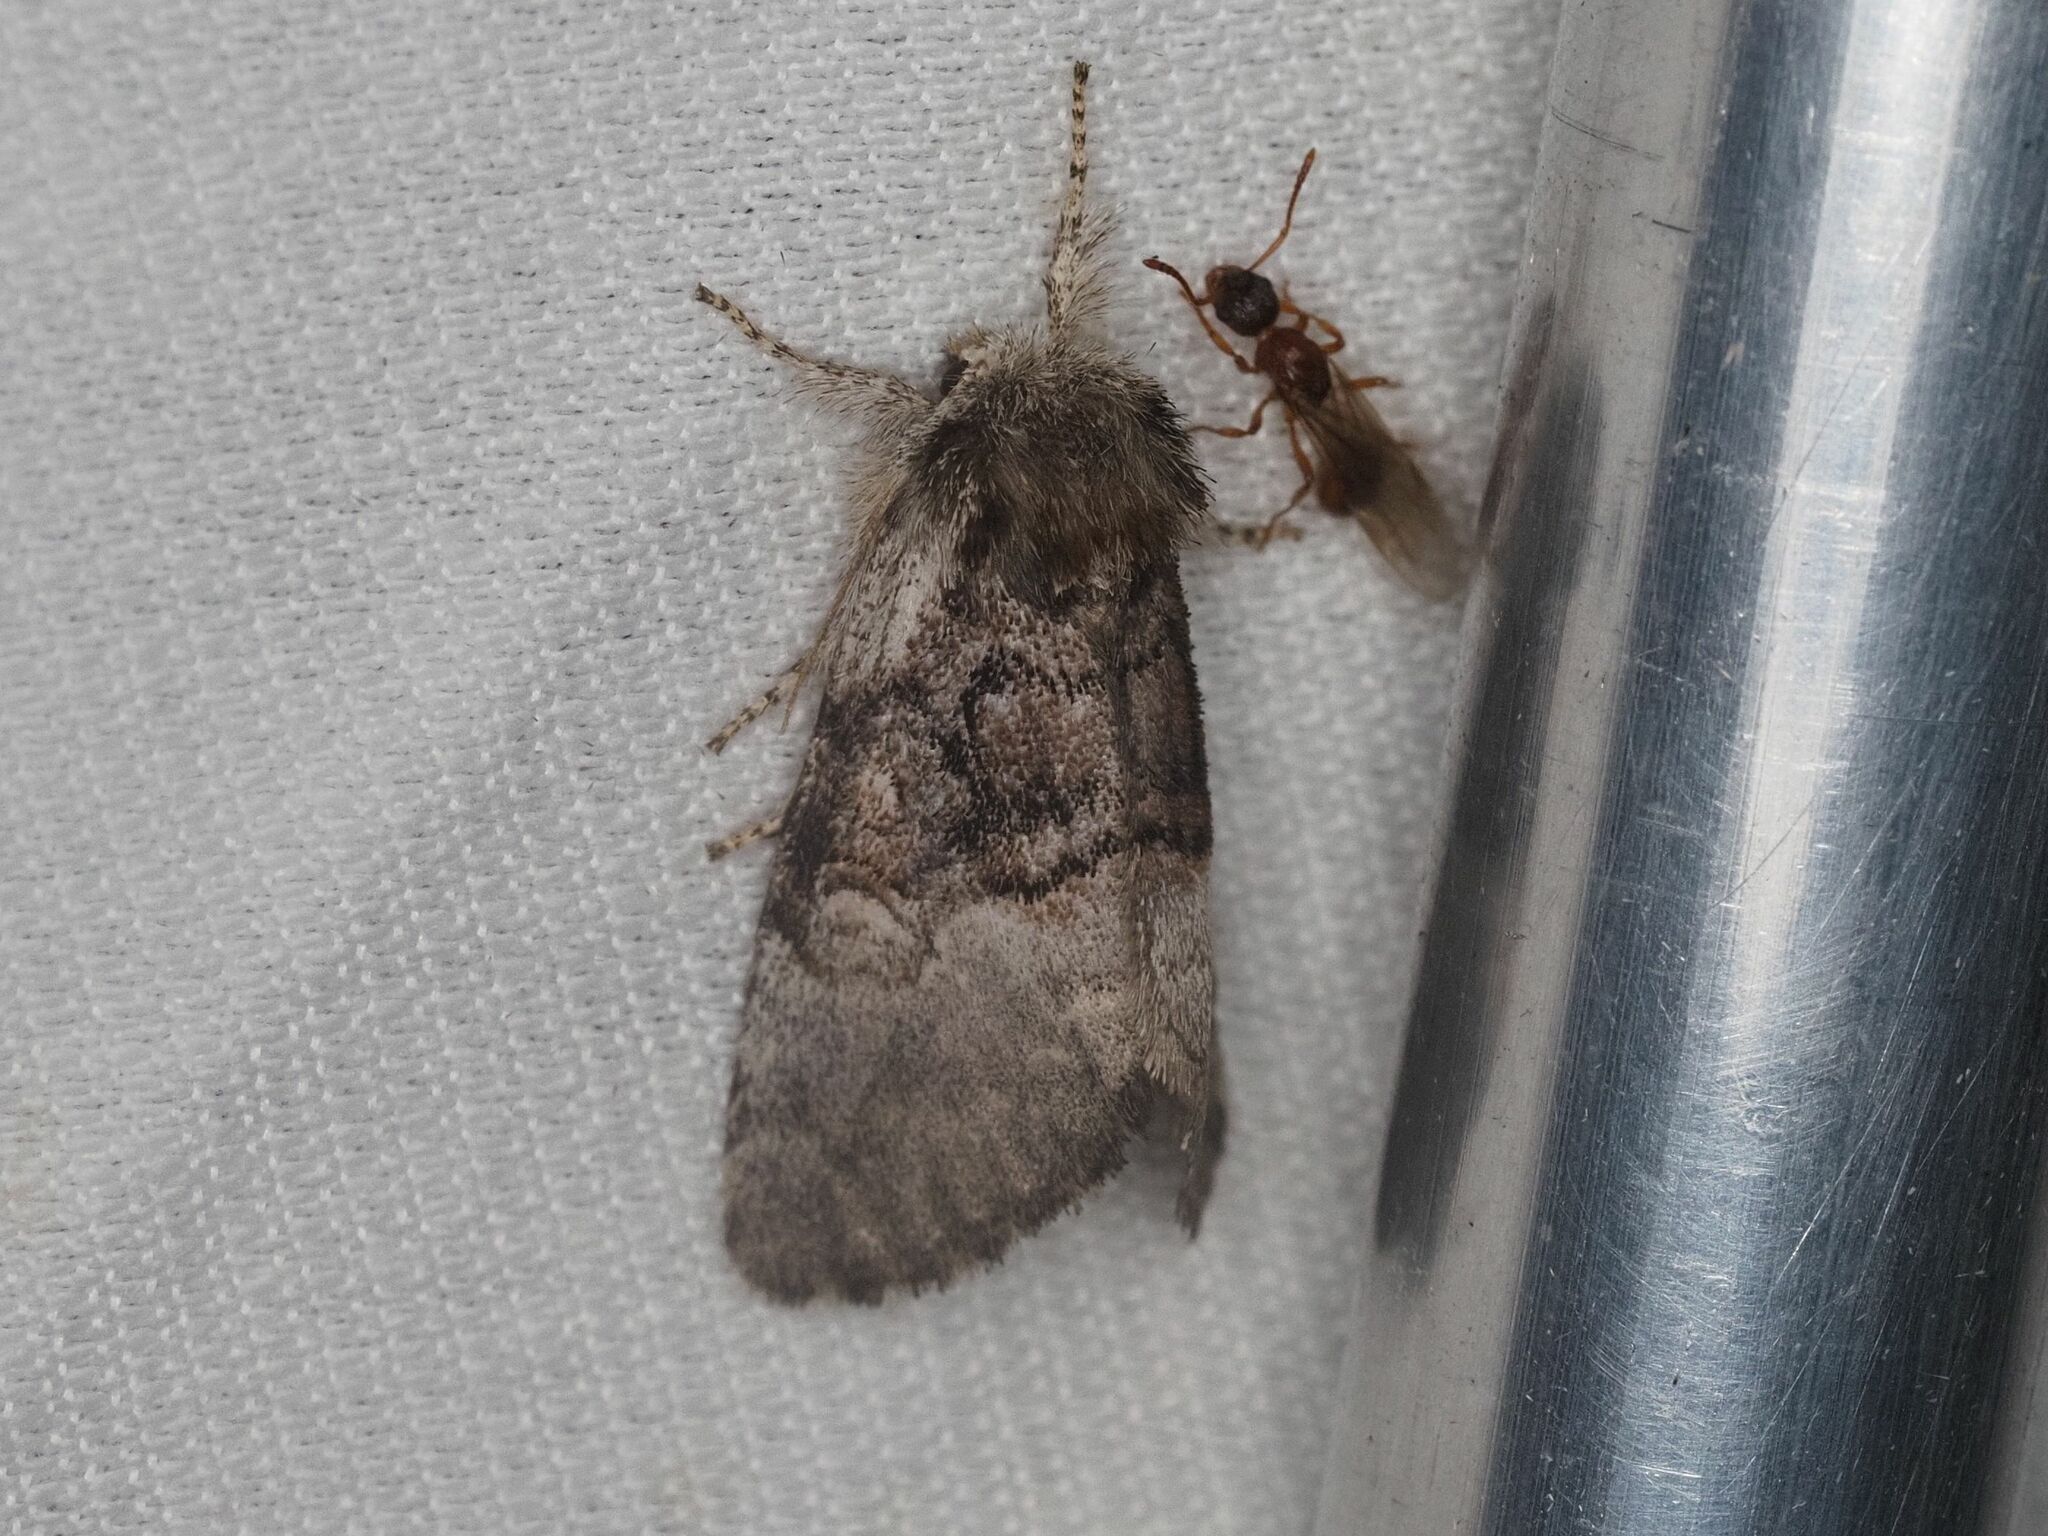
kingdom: Animalia
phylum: Arthropoda
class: Insecta
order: Lepidoptera
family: Noctuidae
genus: Colocasia
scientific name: Colocasia coryli
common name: Nut-tree tussock
